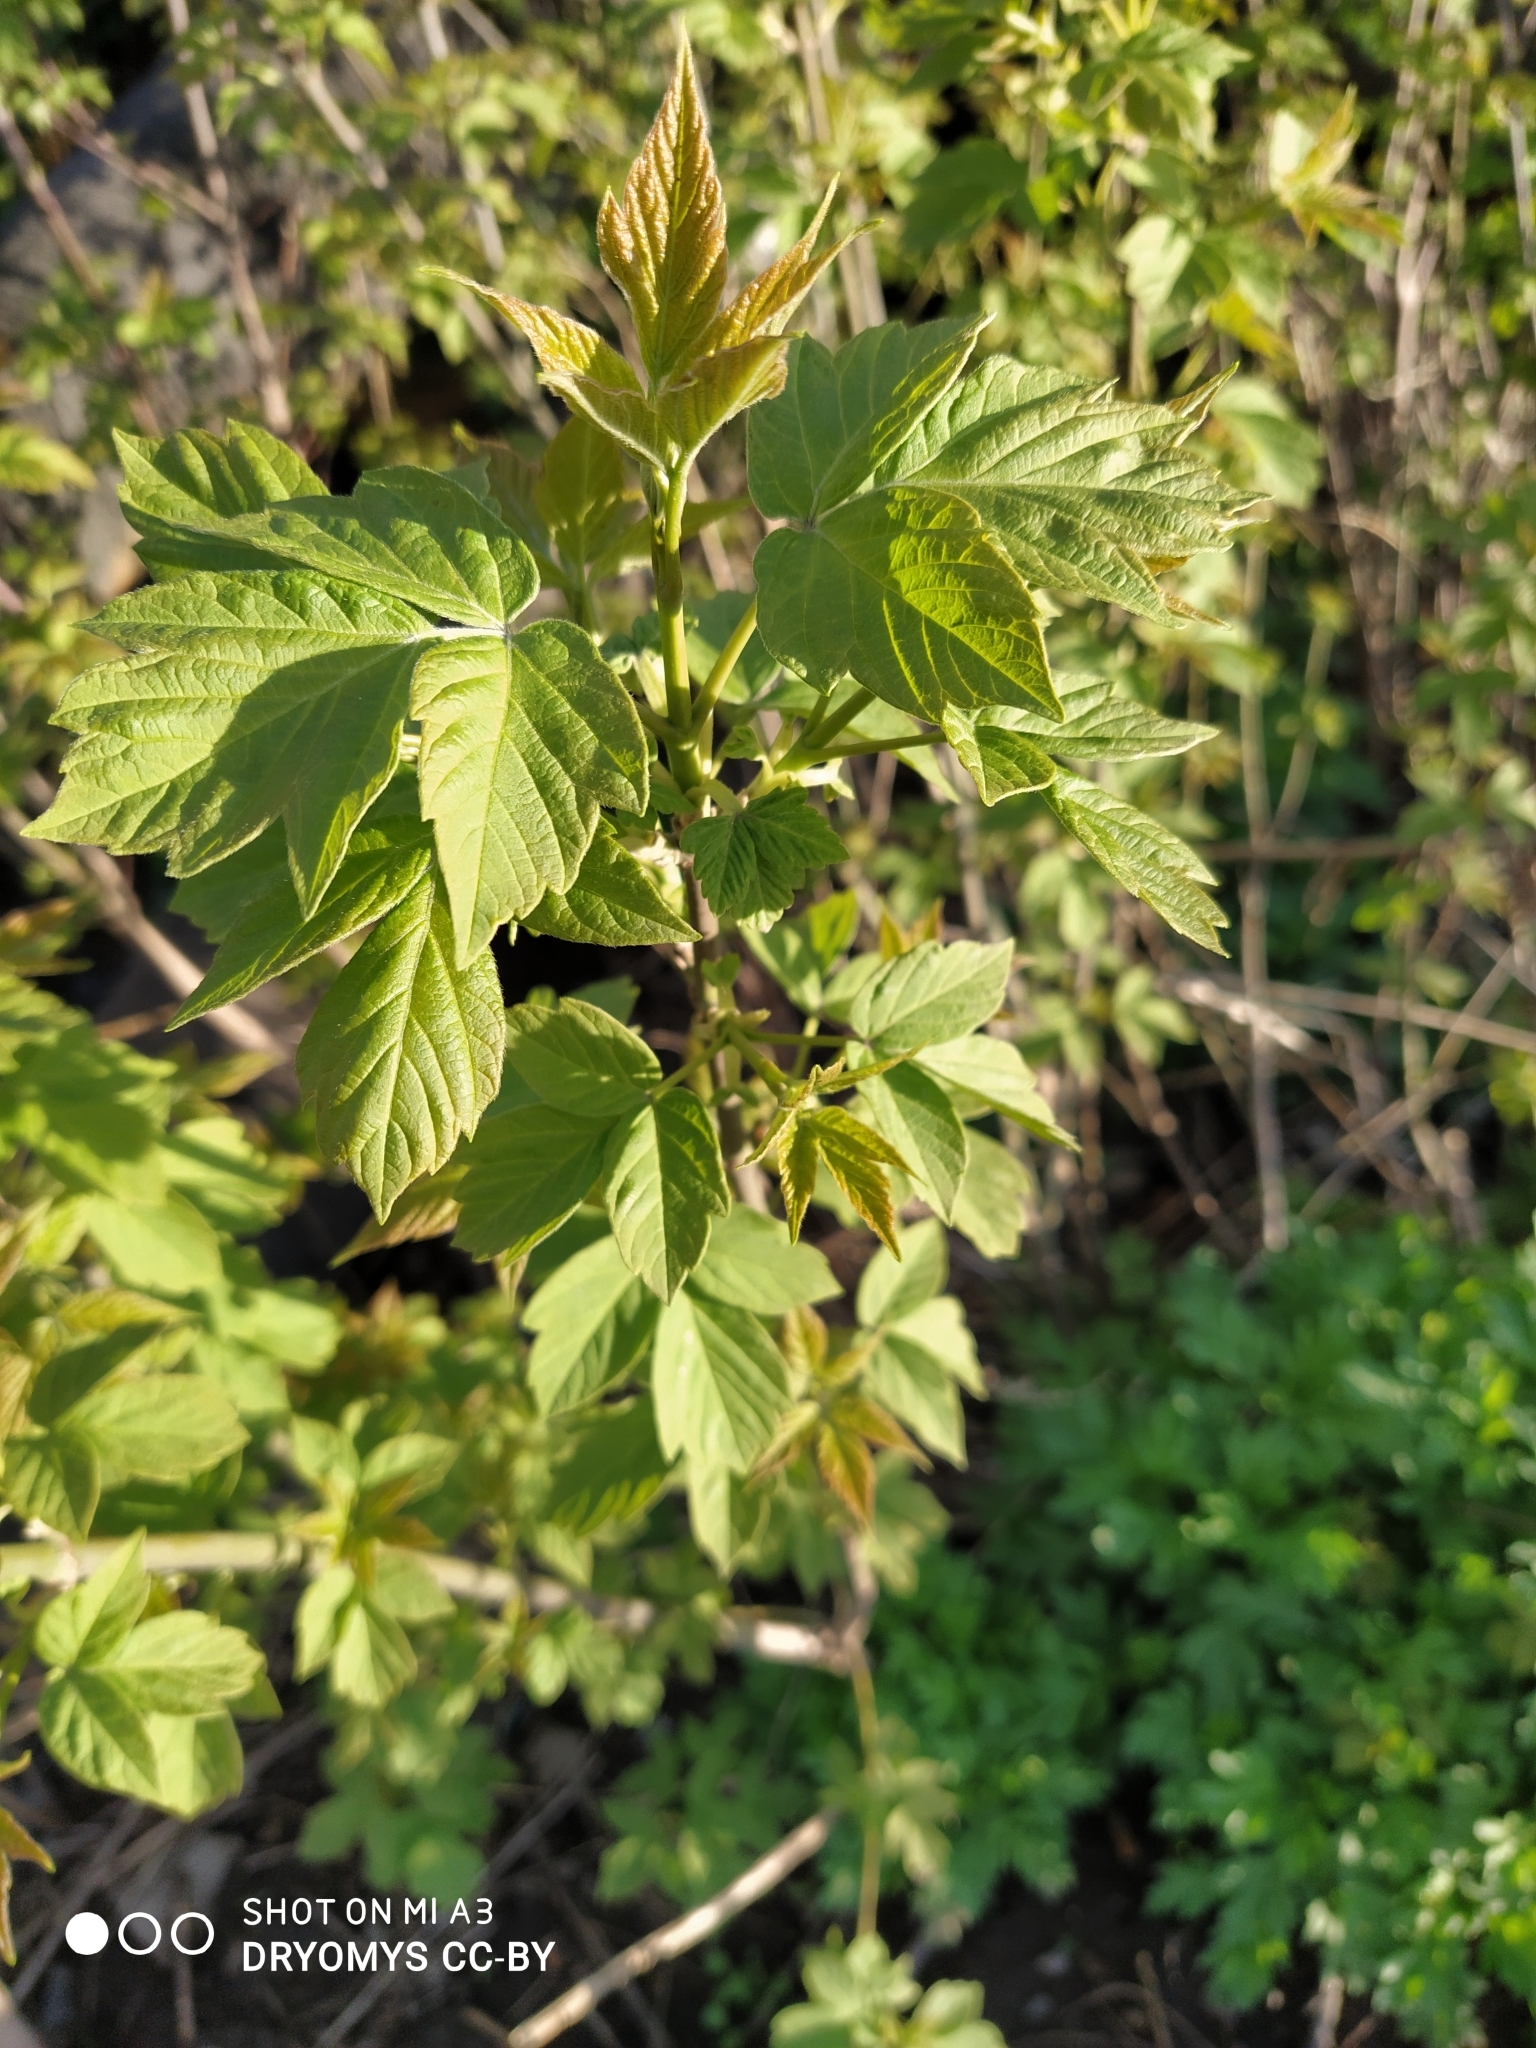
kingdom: Plantae
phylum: Tracheophyta
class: Magnoliopsida
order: Sapindales
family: Sapindaceae
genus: Acer
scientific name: Acer negundo
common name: Ashleaf maple
